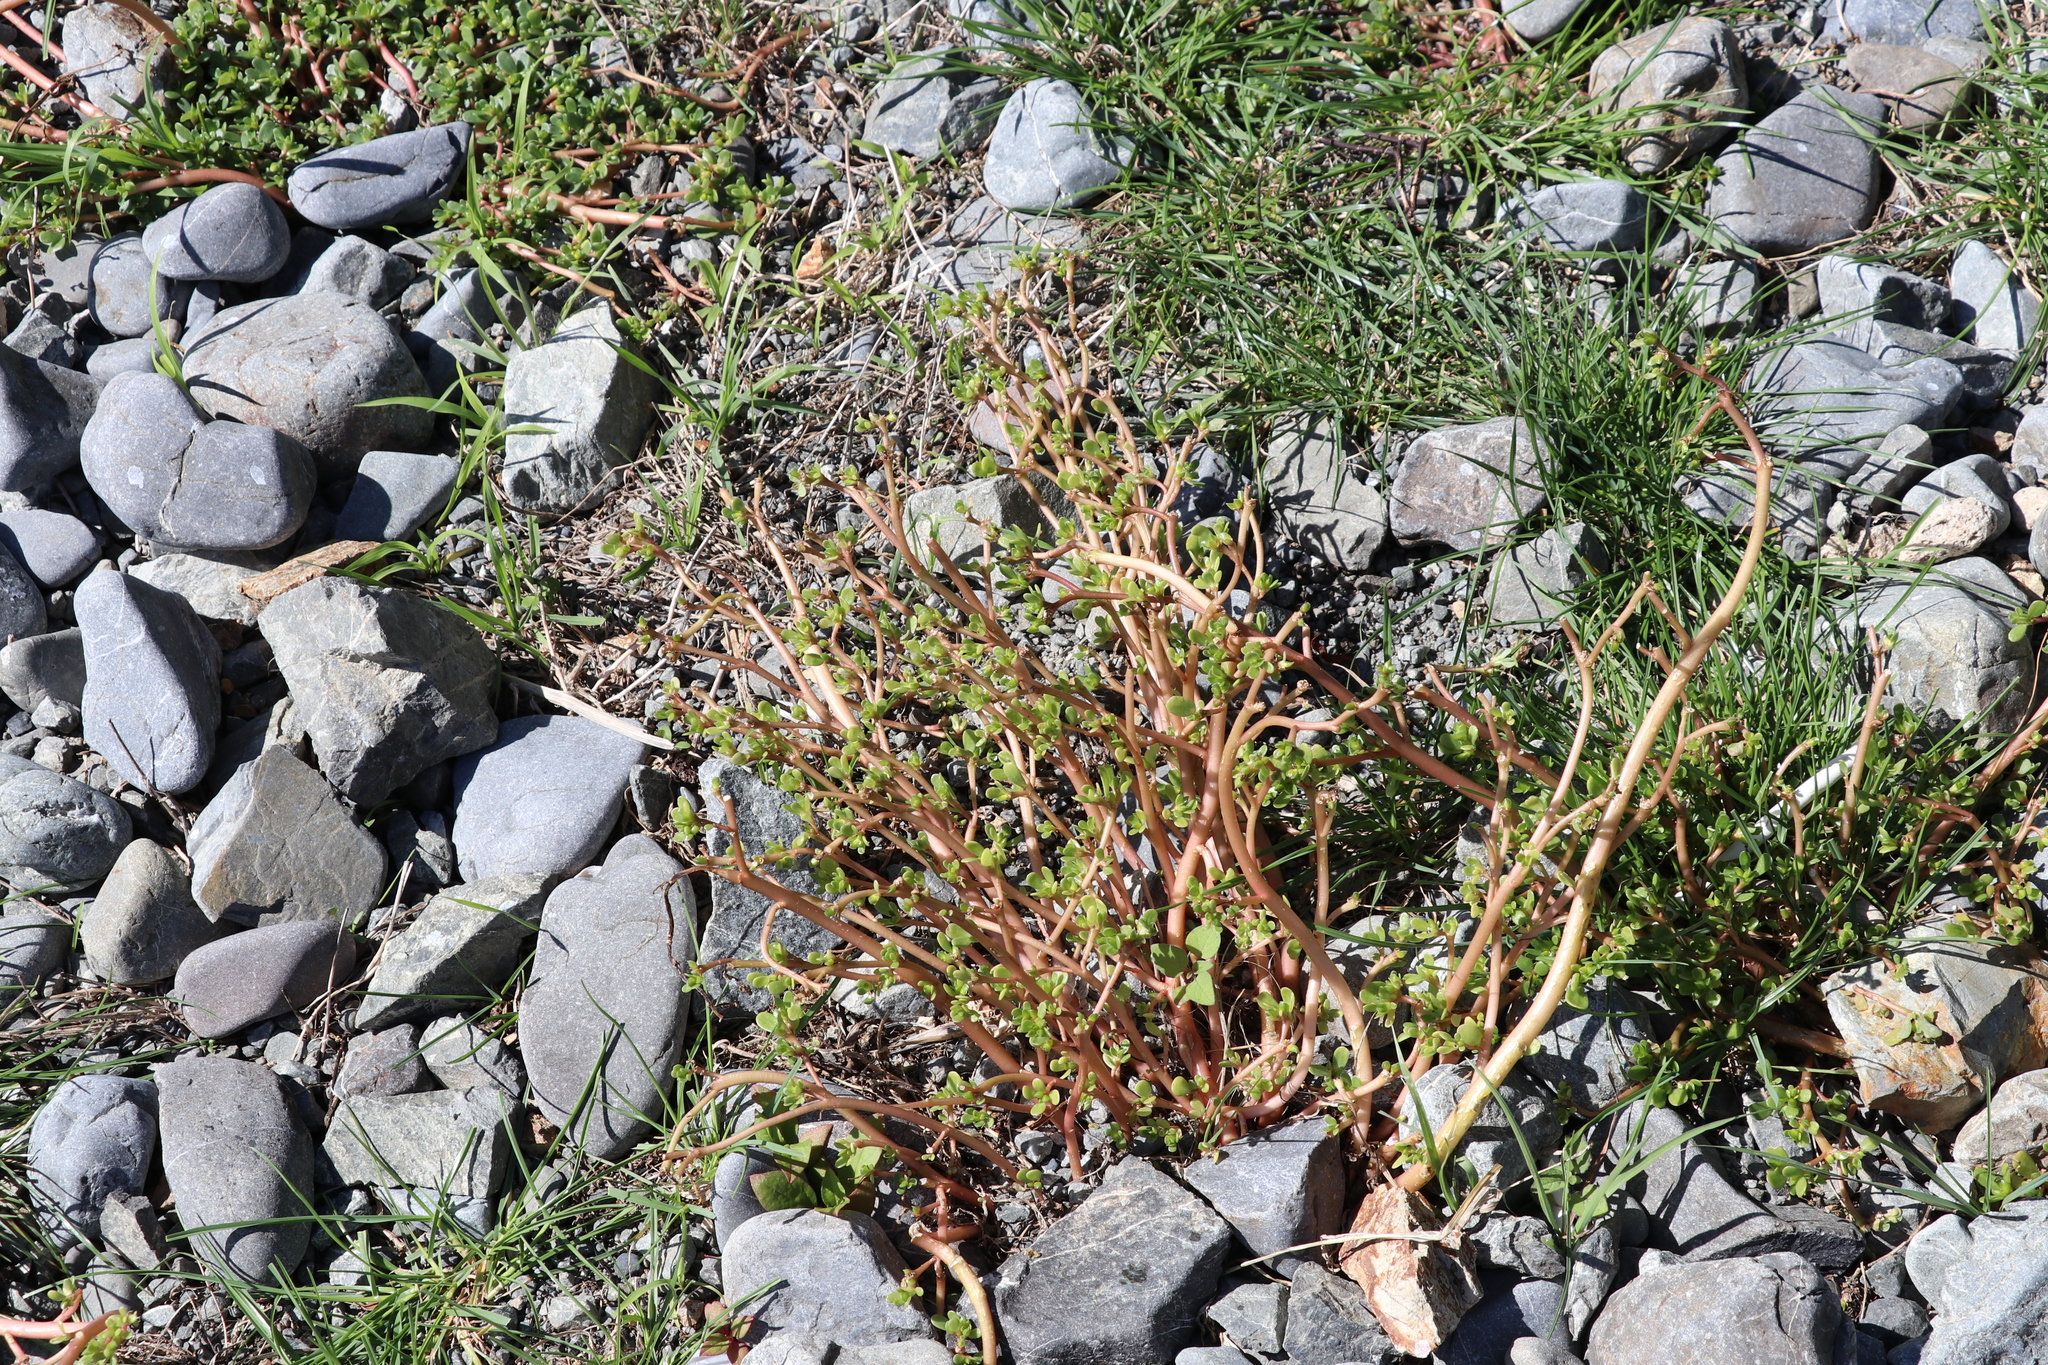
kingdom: Plantae
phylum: Tracheophyta
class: Magnoliopsida
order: Caryophyllales
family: Portulacaceae
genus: Portulaca
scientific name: Portulaca oleracea
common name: Common purslane
